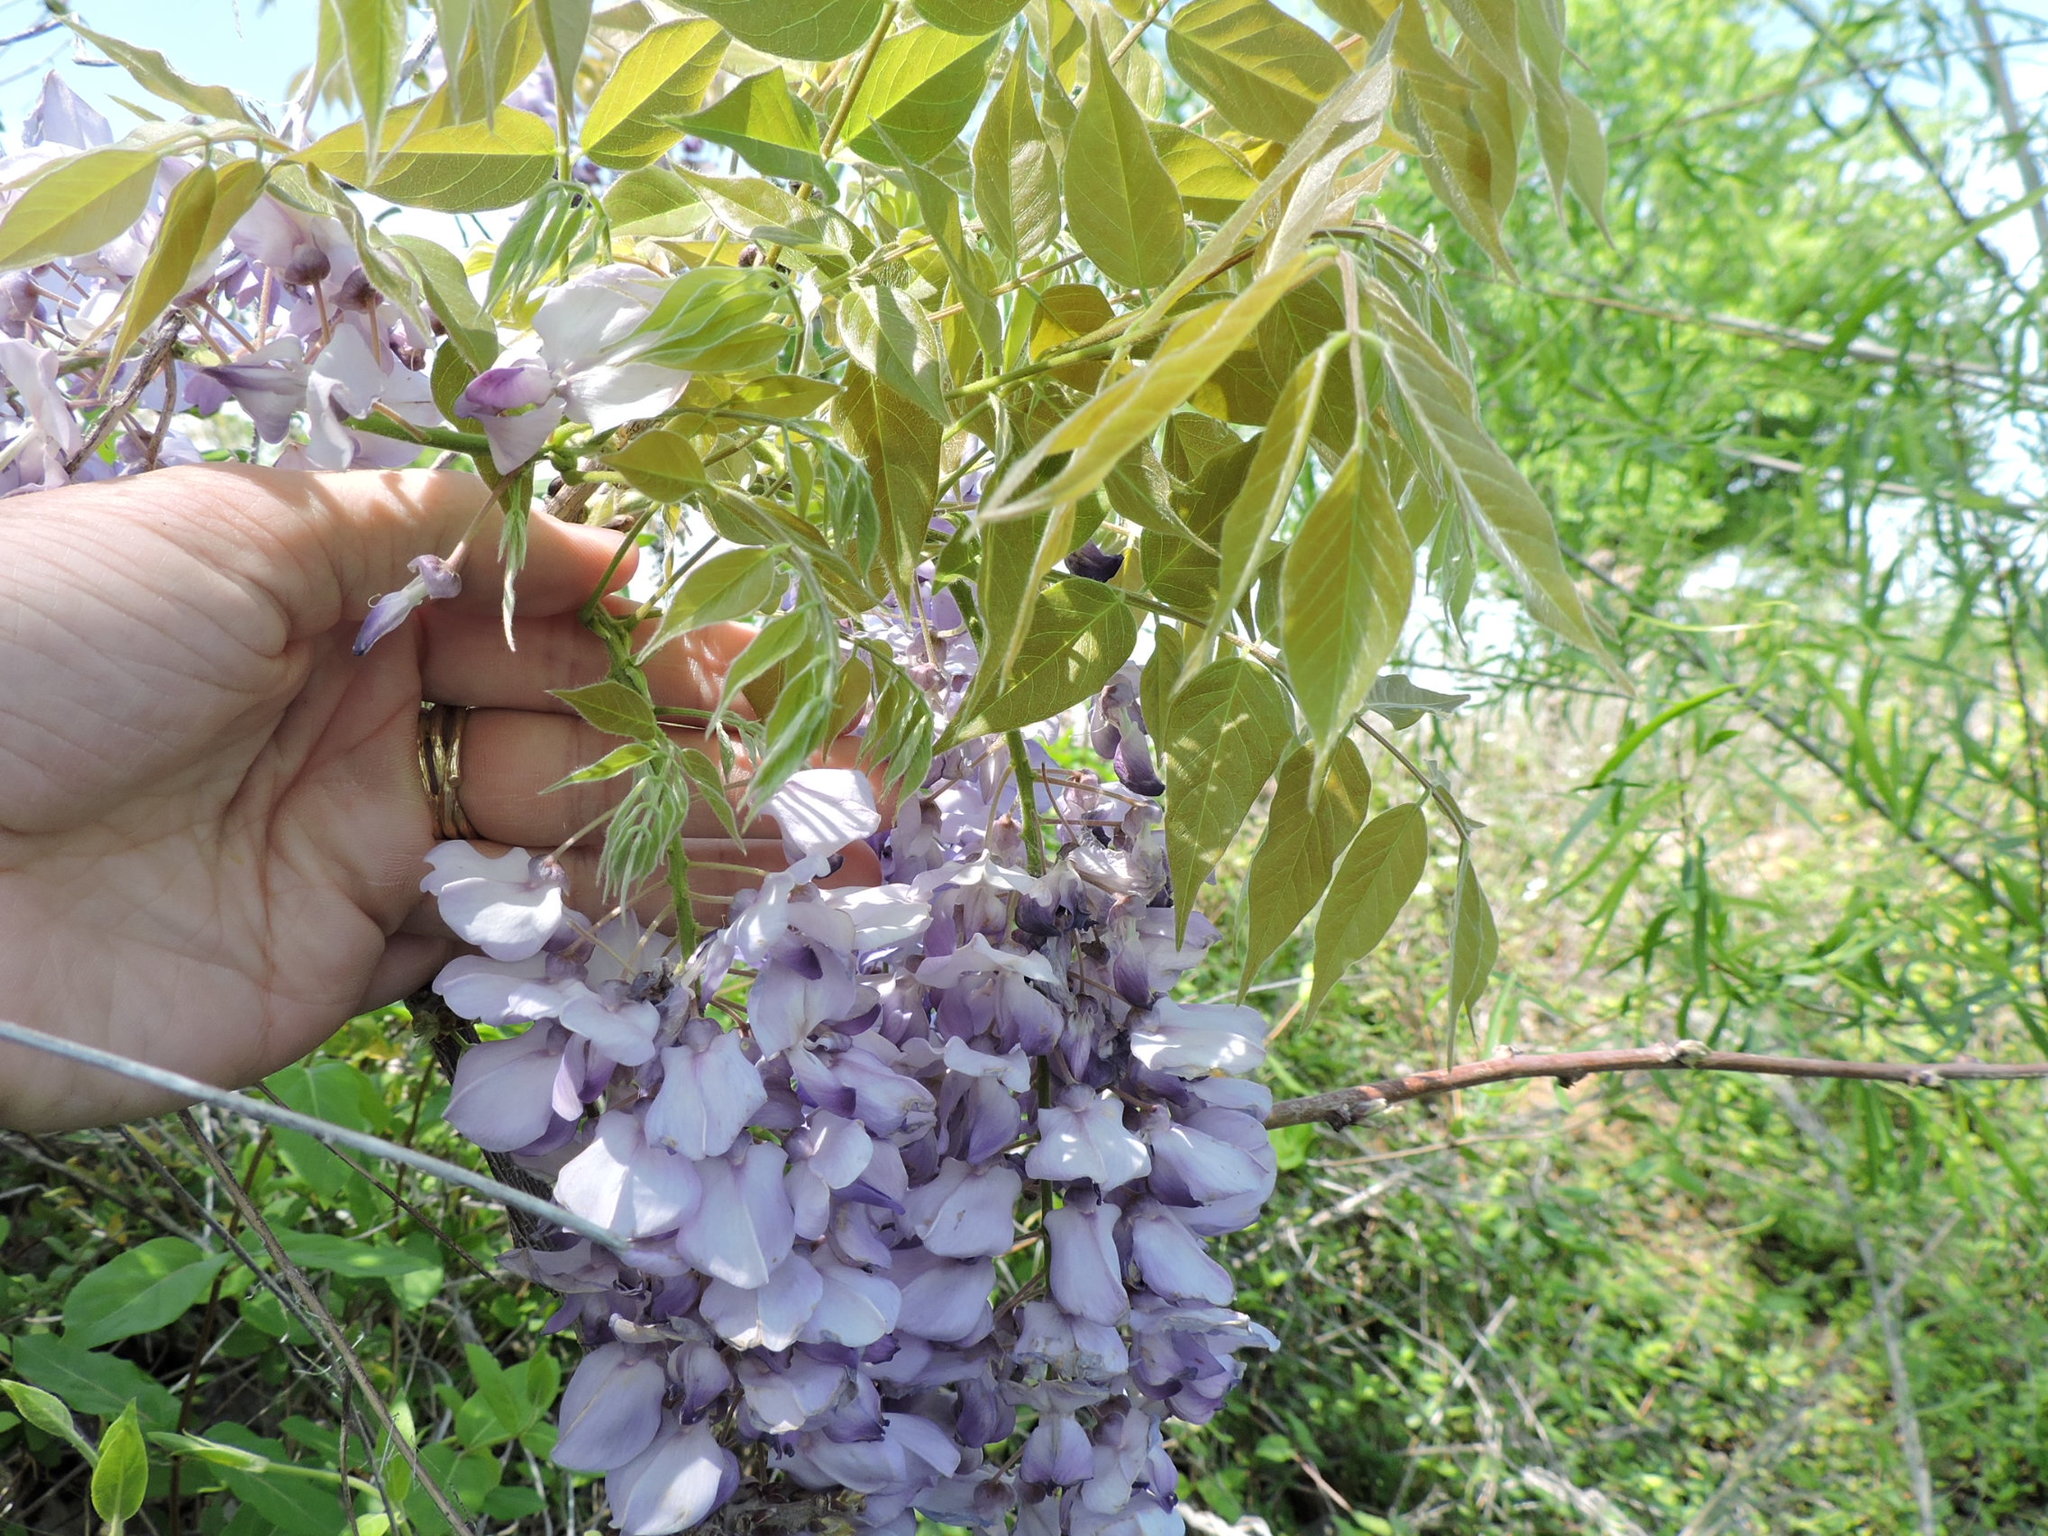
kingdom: Plantae
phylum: Tracheophyta
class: Magnoliopsida
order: Fabales
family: Fabaceae
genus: Wisteria
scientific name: Wisteria sinensis
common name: Chinese wisteria
